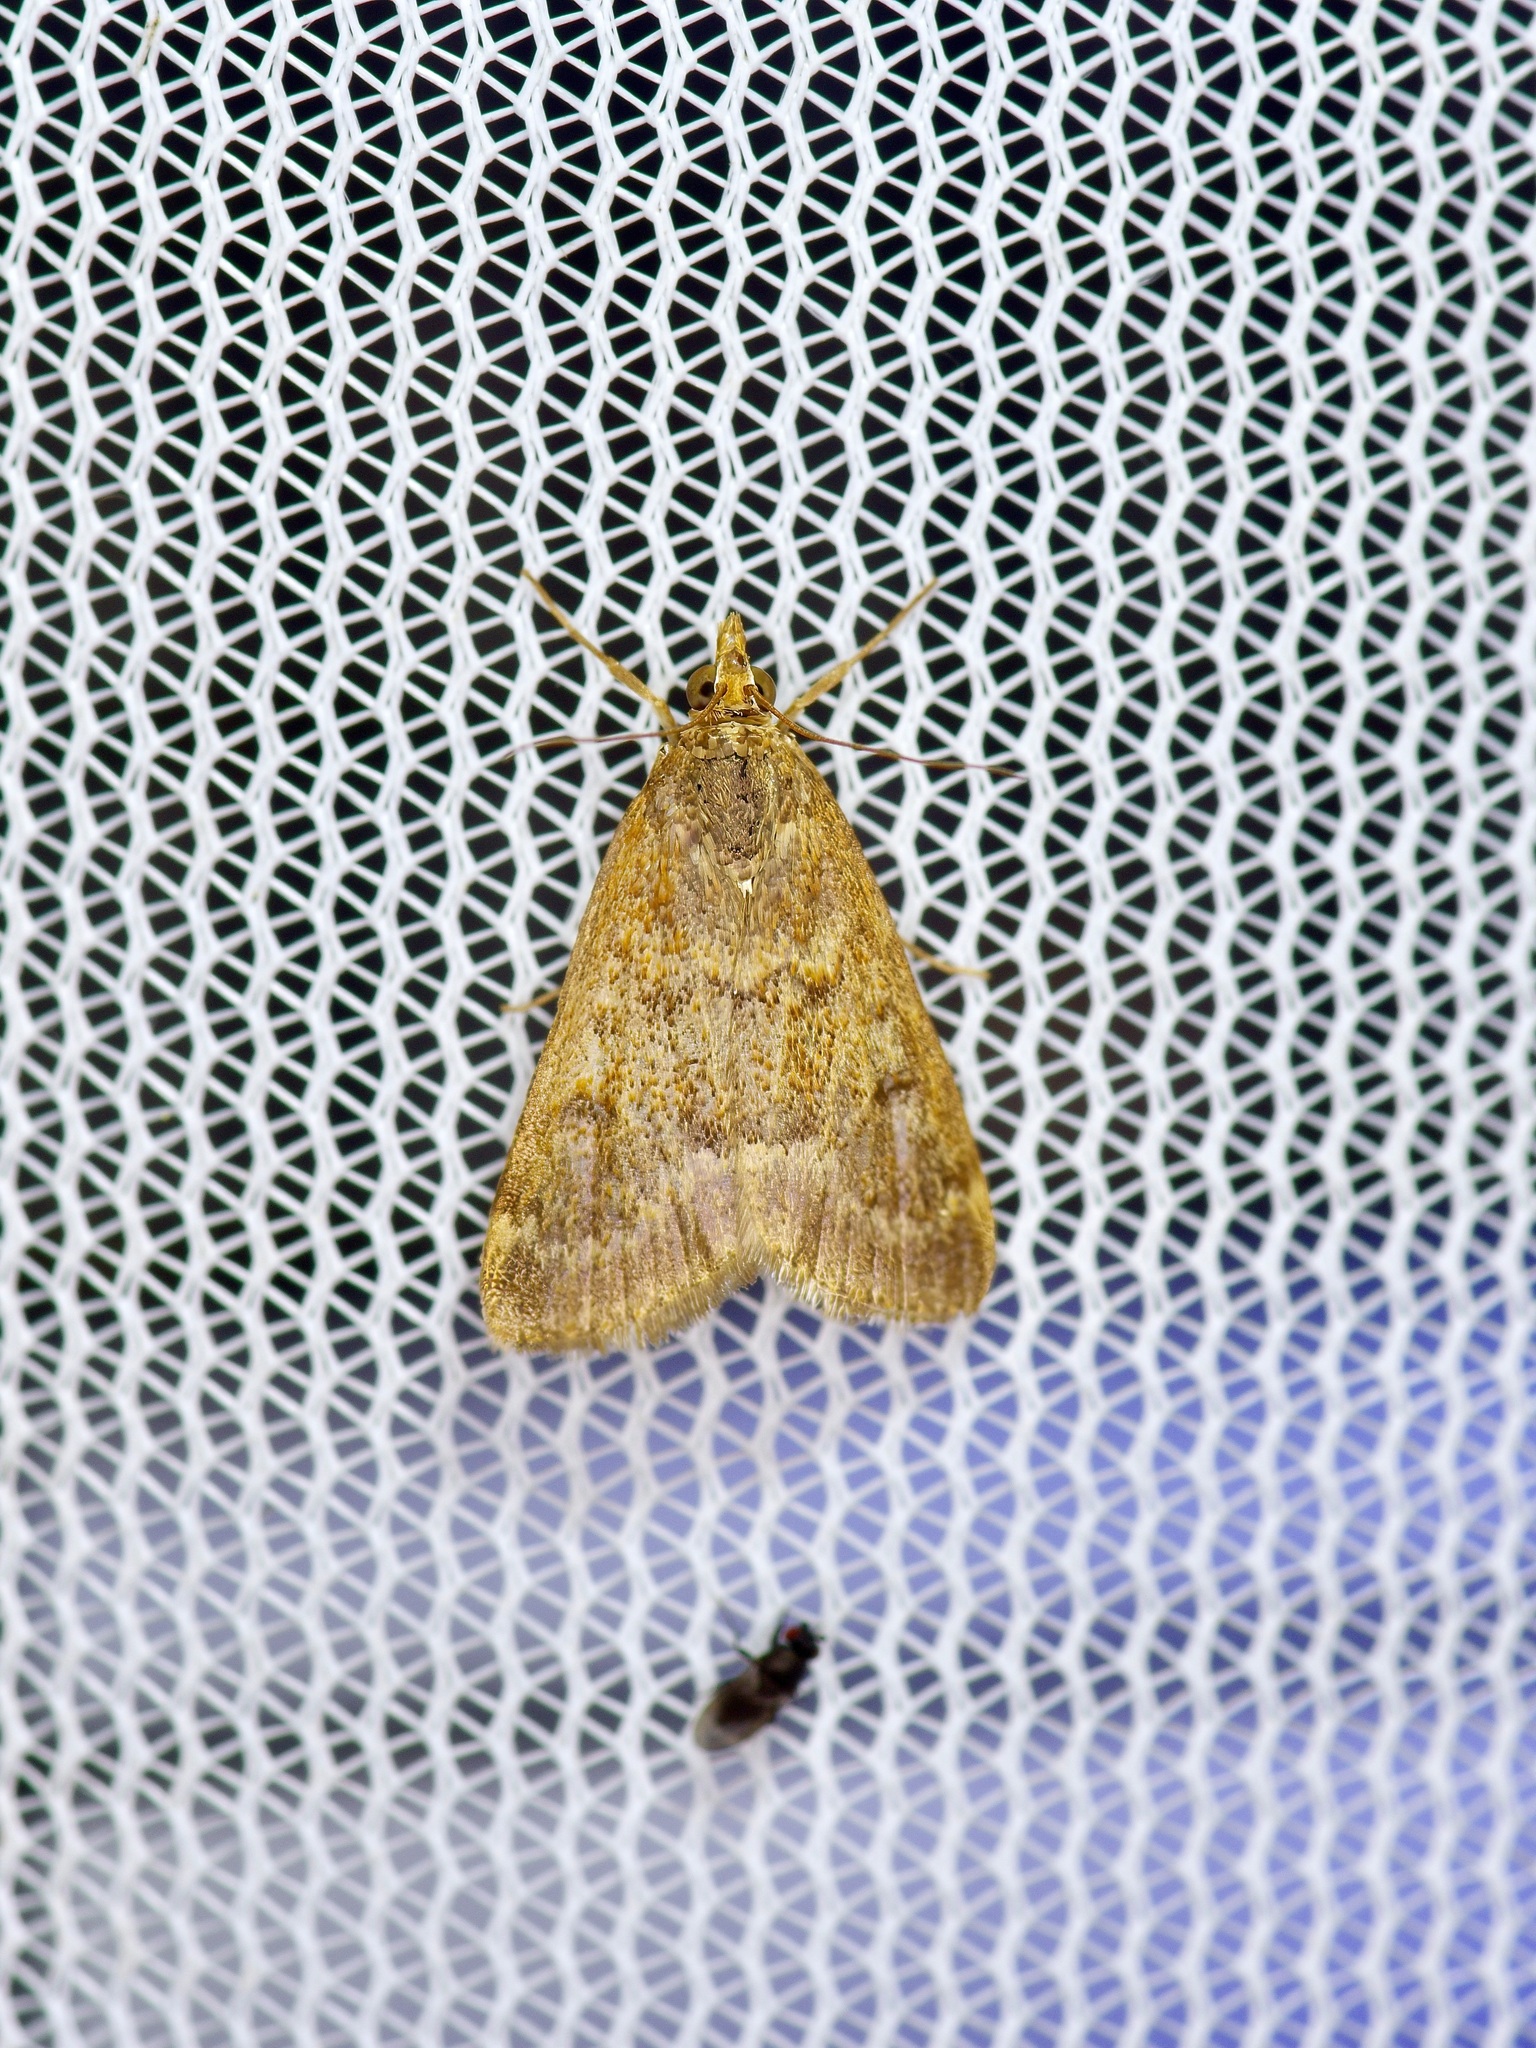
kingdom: Animalia
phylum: Arthropoda
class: Insecta
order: Lepidoptera
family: Crambidae
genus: Achyra
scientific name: Achyra rantalis
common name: Garden webworm
